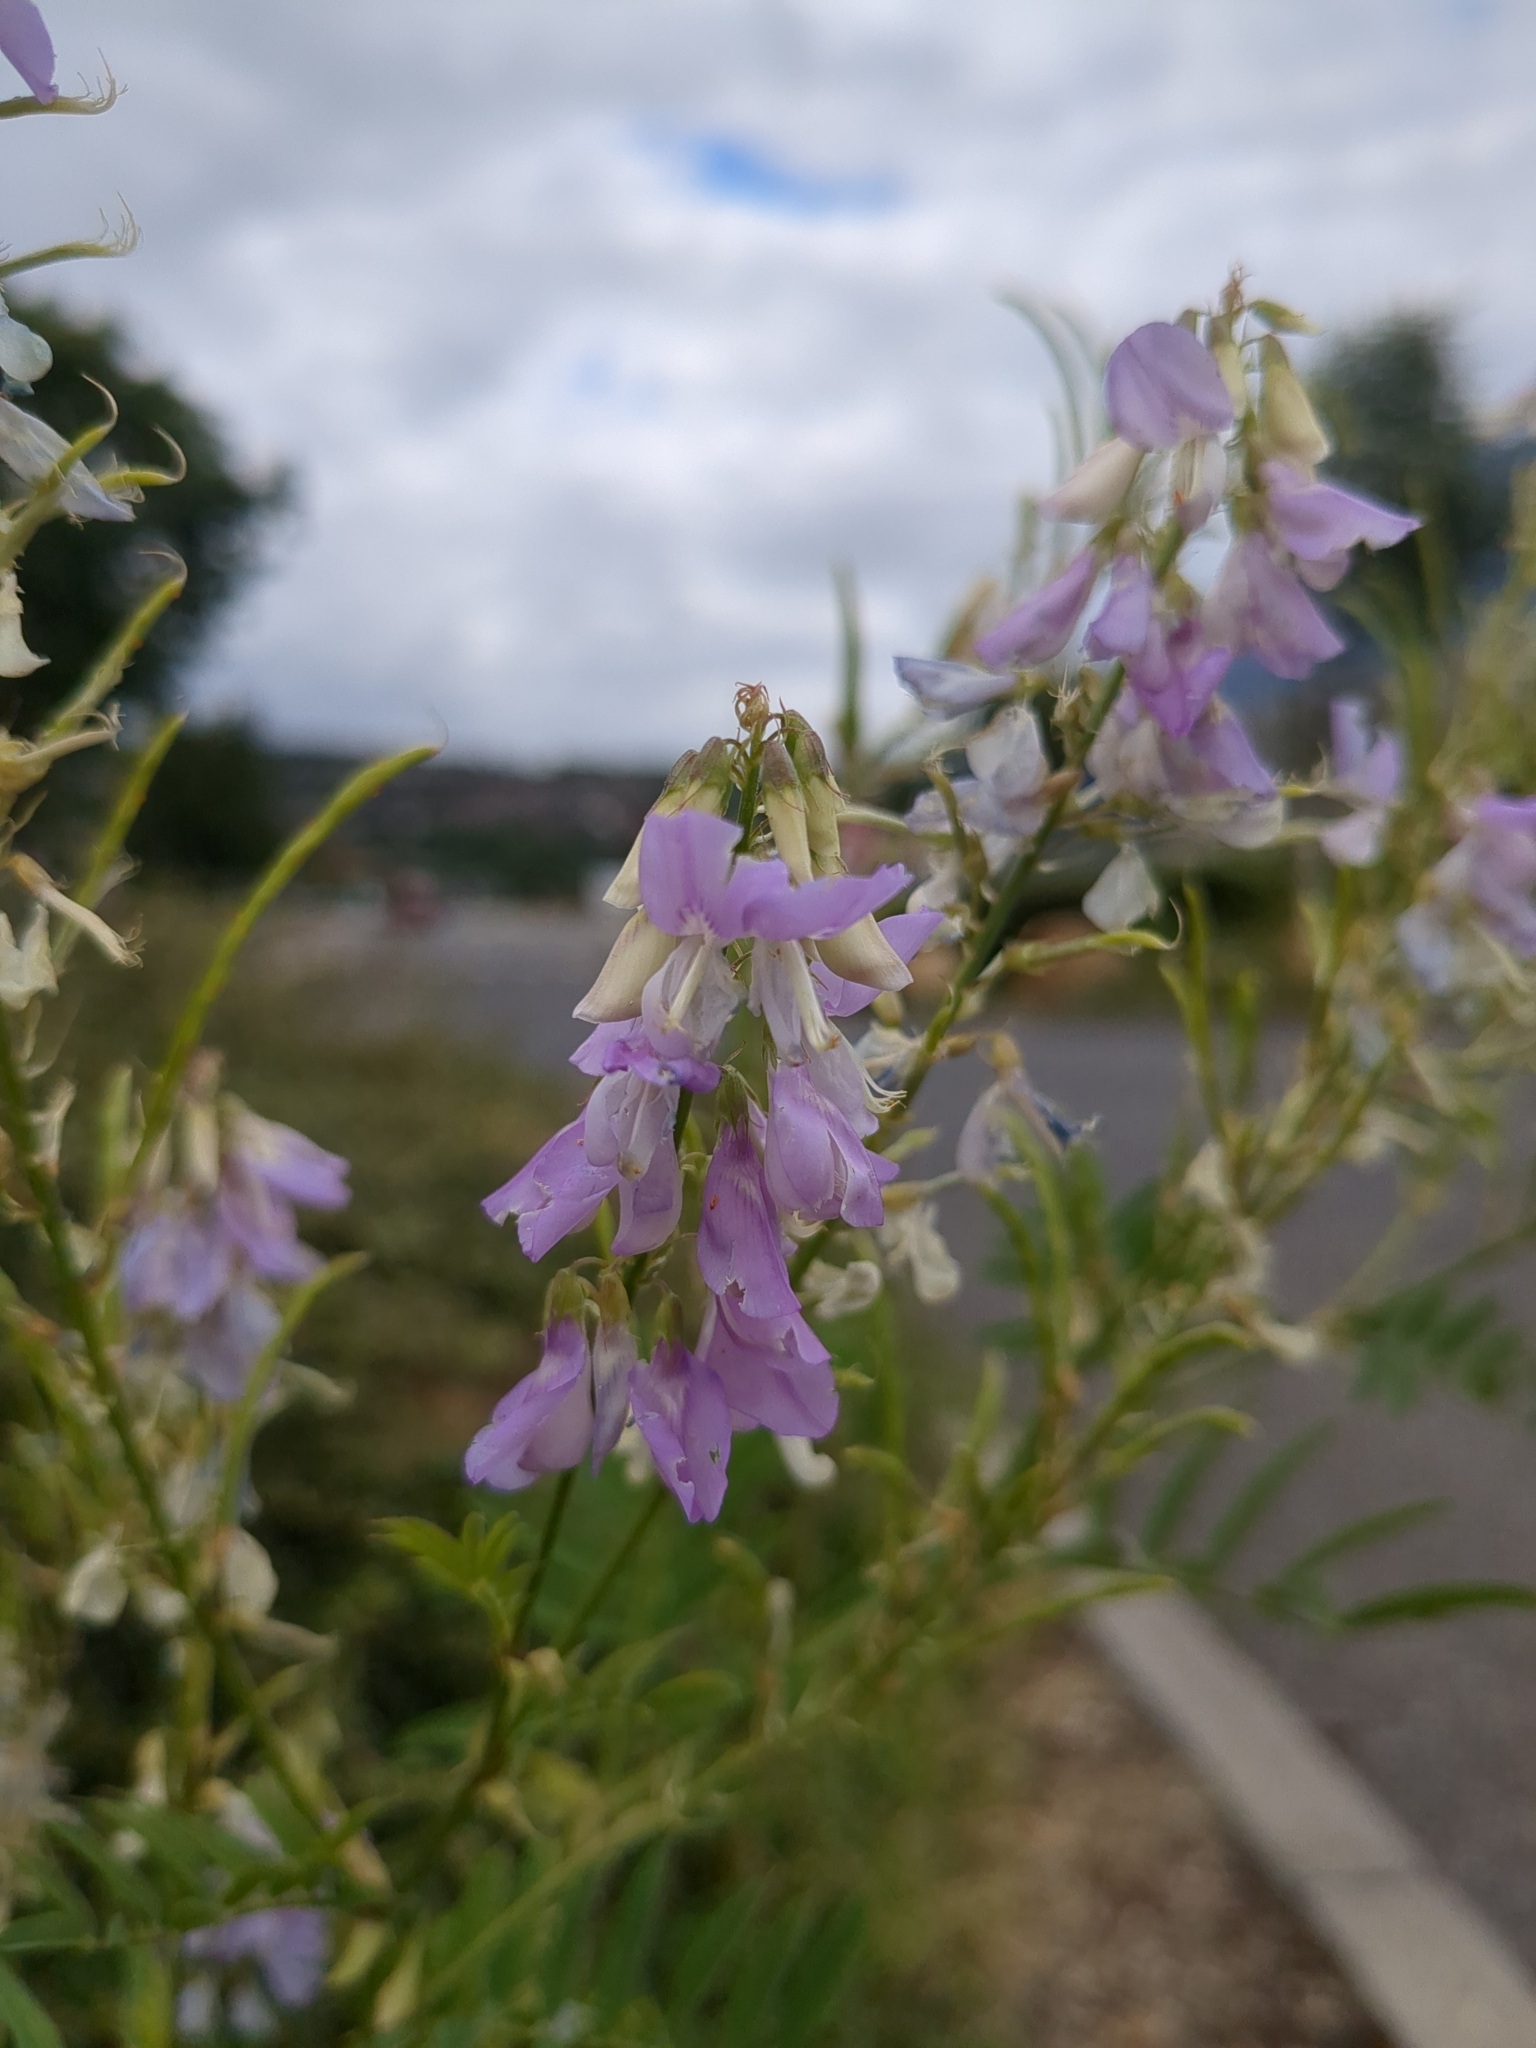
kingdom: Plantae
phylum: Tracheophyta
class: Magnoliopsida
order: Fabales
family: Fabaceae
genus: Galega
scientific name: Galega officinalis
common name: Goat's-rue
